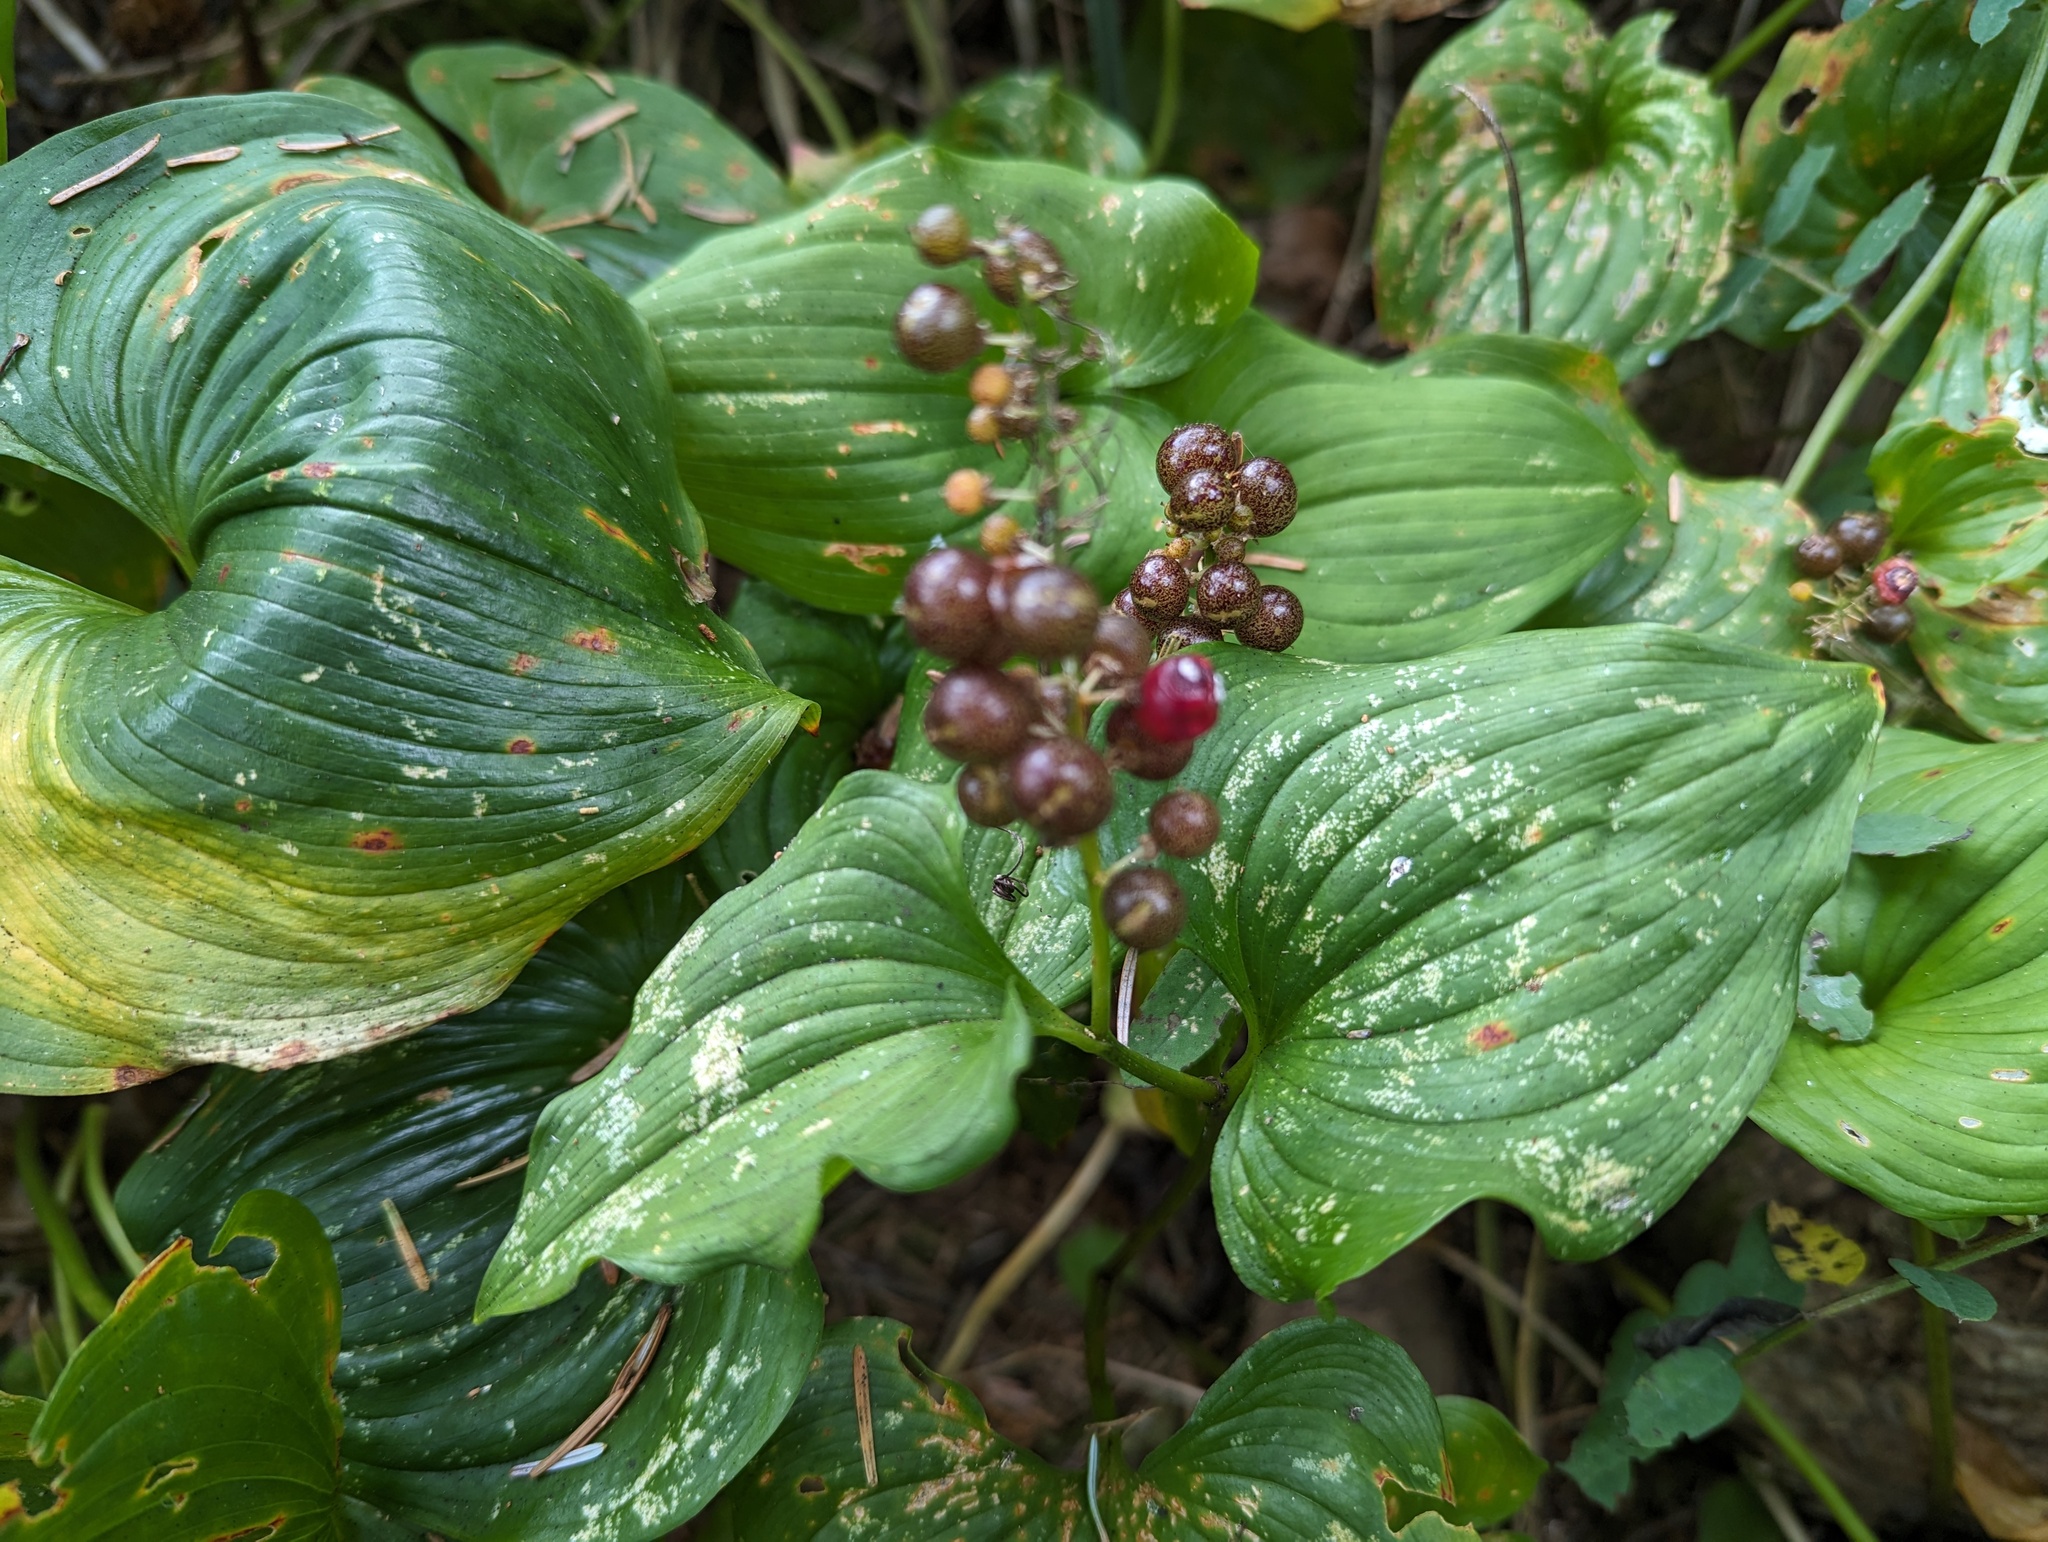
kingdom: Plantae
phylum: Tracheophyta
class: Liliopsida
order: Asparagales
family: Asparagaceae
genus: Maianthemum
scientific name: Maianthemum dilatatum
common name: False lily-of-the-valley
